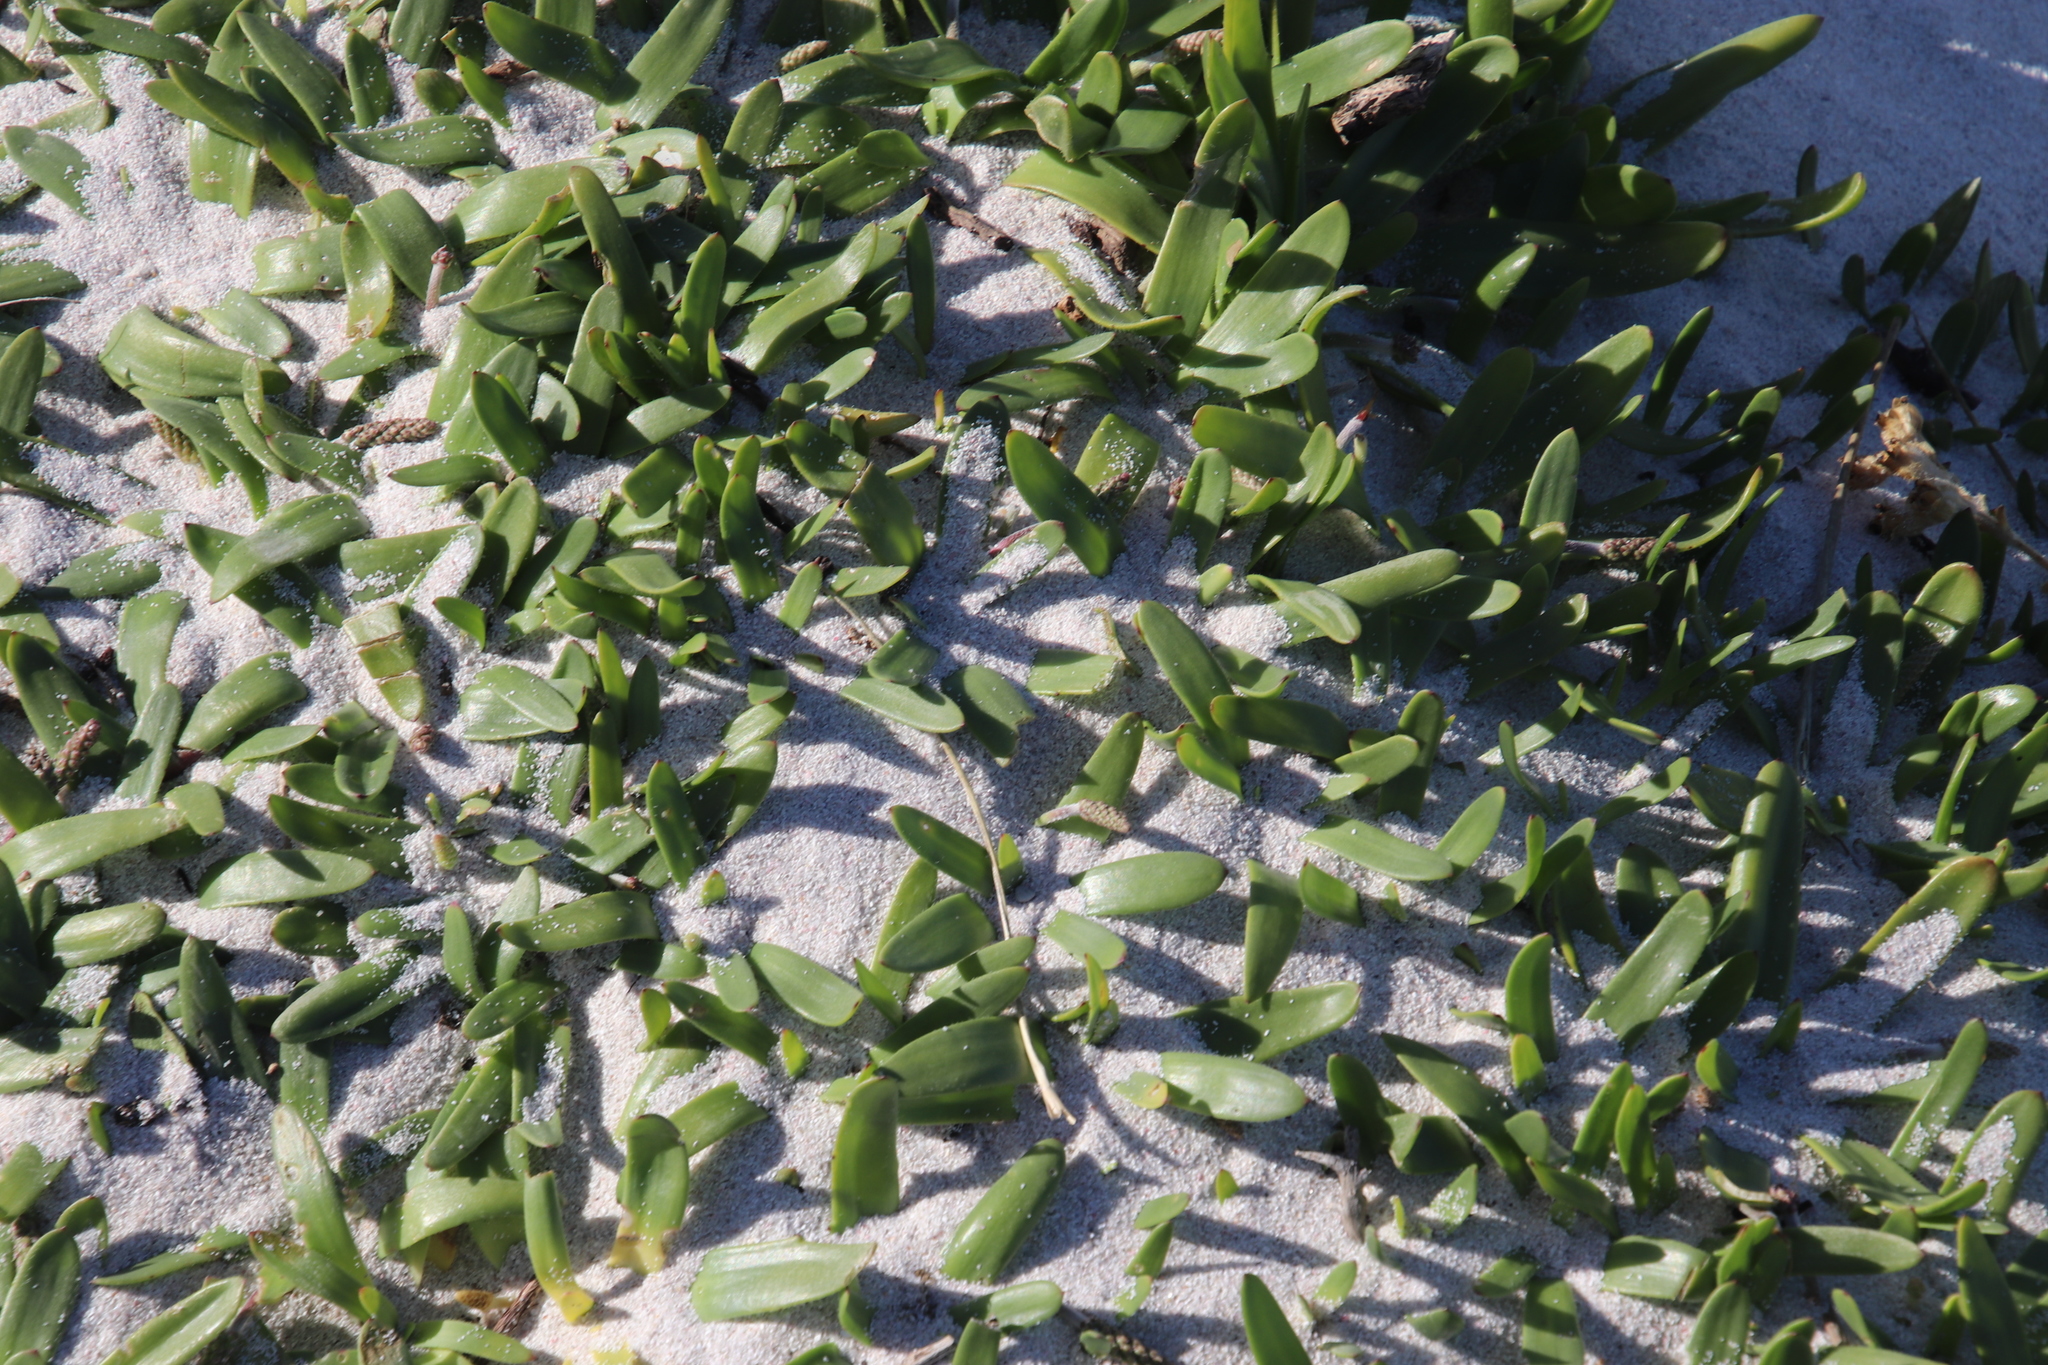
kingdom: Plantae
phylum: Tracheophyta
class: Magnoliopsida
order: Lamiales
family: Plantaginaceae
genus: Plantago
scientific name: Plantago carnosa
